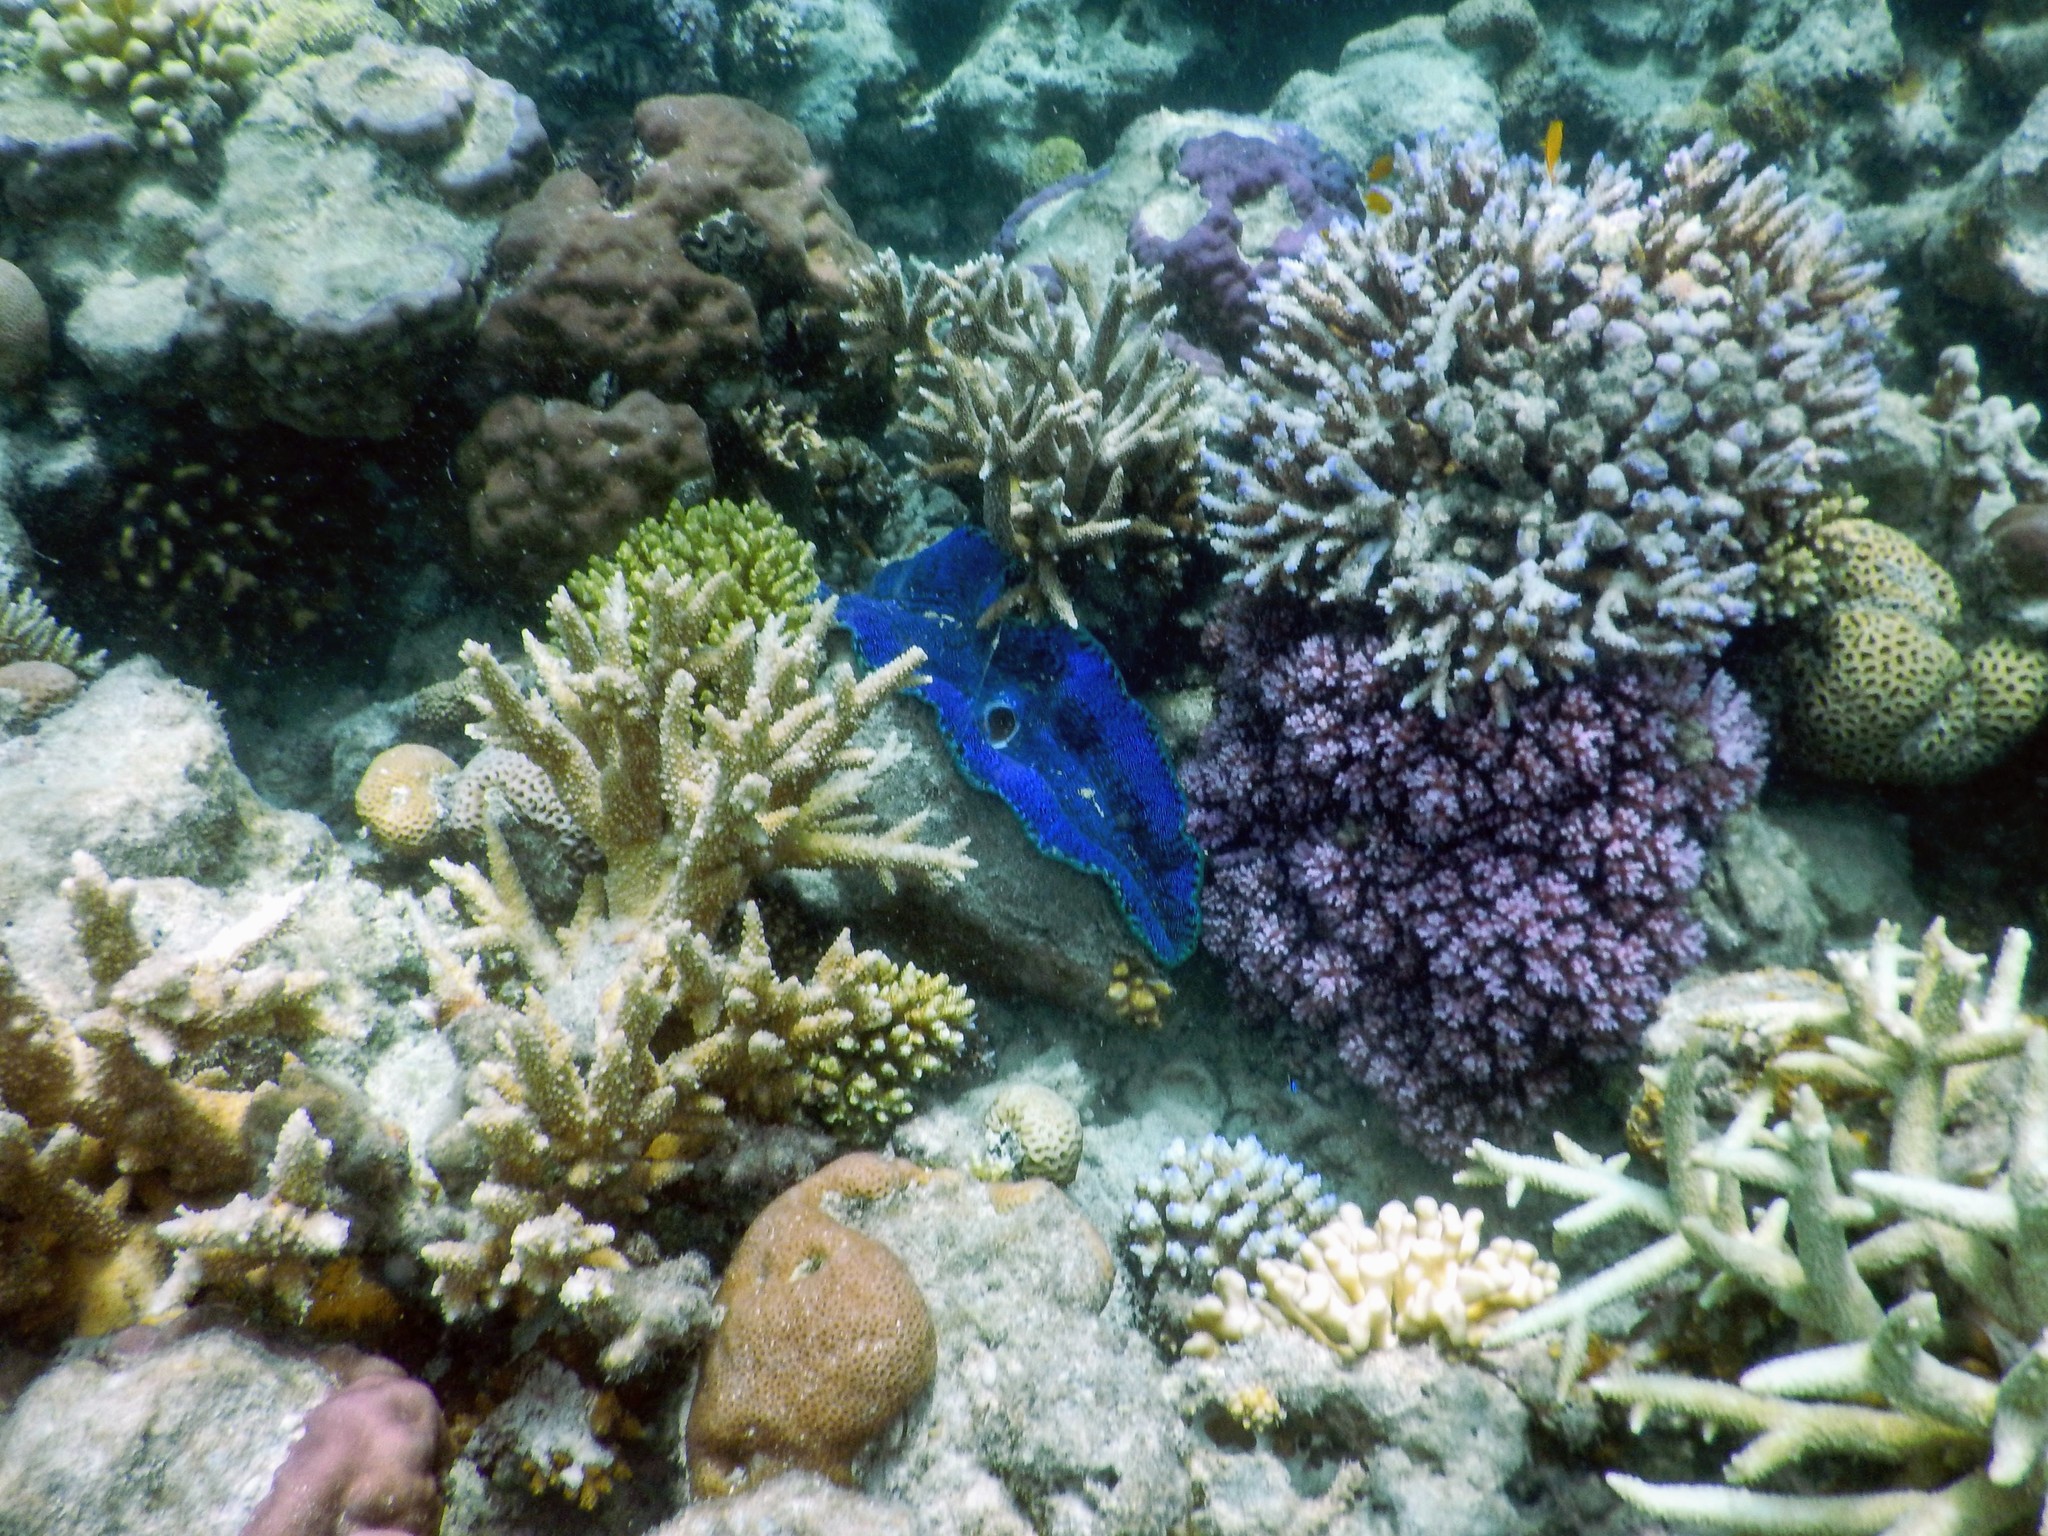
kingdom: Animalia
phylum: Mollusca
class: Bivalvia
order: Cardiida
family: Cardiidae
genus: Tridacna
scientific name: Tridacna derasa
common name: Southern giant clam
